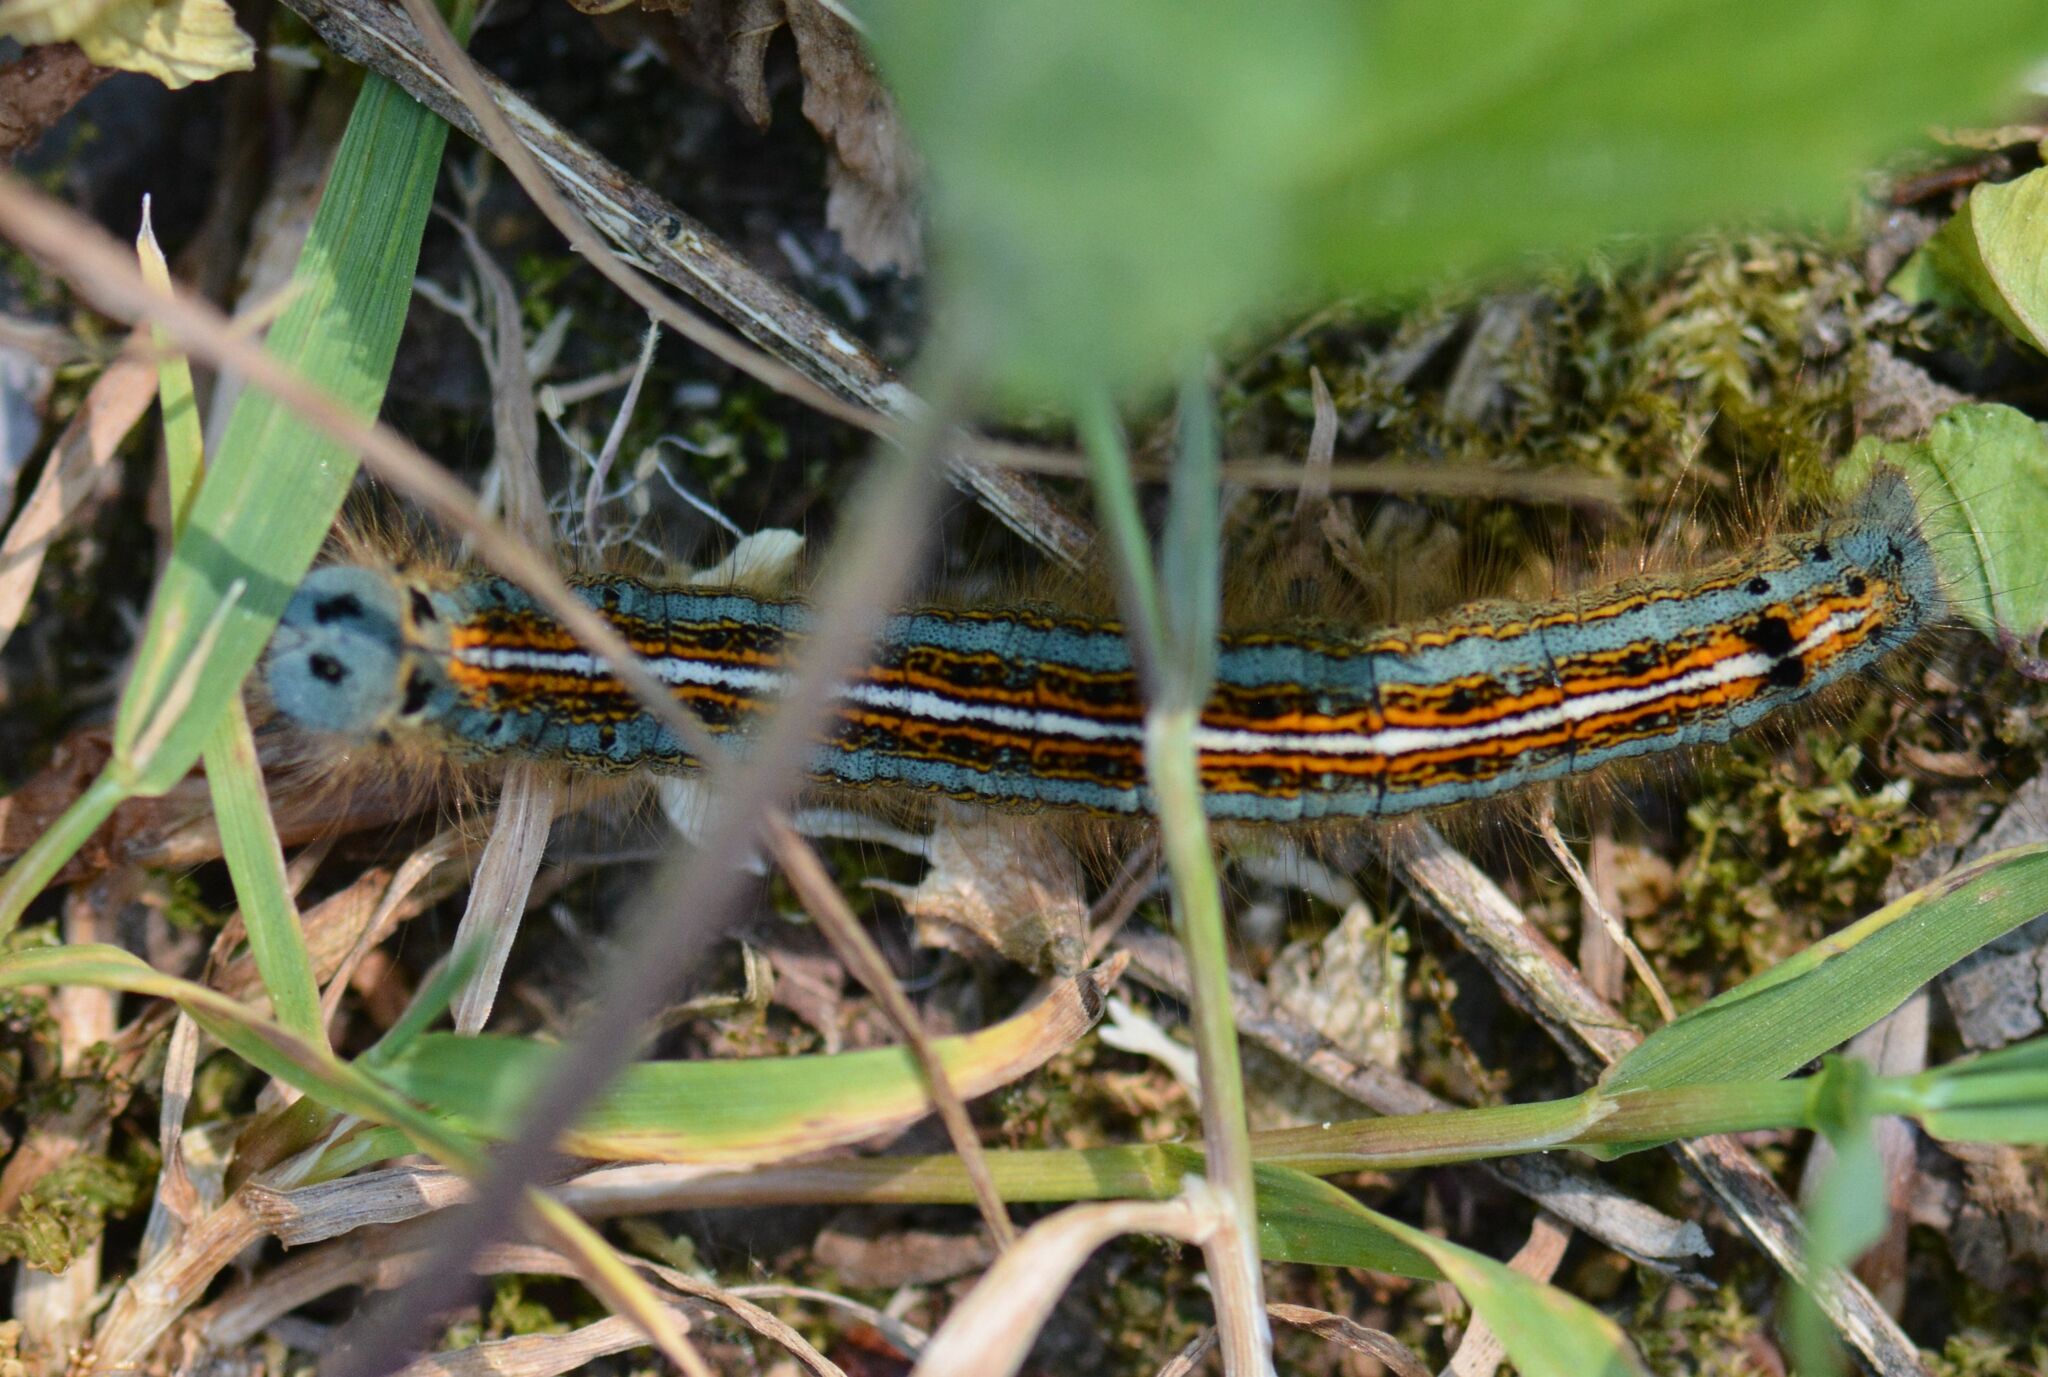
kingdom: Animalia
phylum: Arthropoda
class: Insecta
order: Lepidoptera
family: Lasiocampidae
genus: Malacosoma
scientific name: Malacosoma neustria
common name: The lackey
